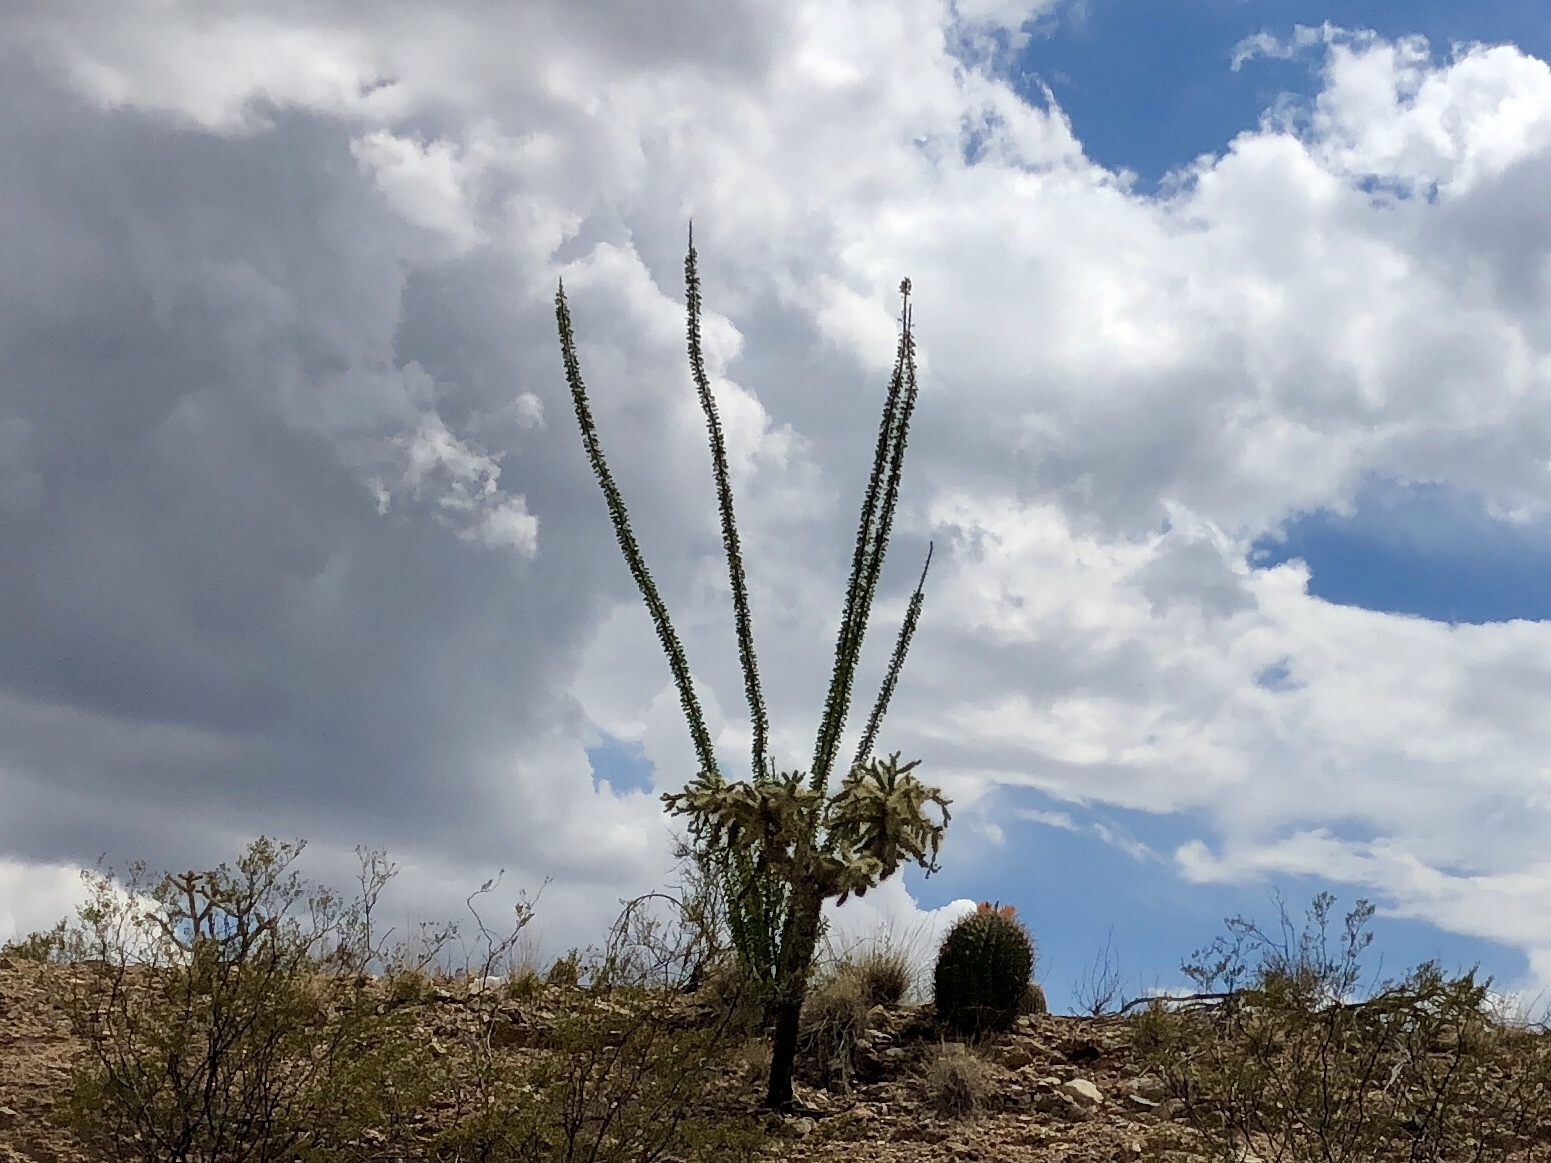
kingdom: Plantae
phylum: Tracheophyta
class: Magnoliopsida
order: Ericales
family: Fouquieriaceae
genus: Fouquieria
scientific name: Fouquieria splendens
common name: Vine-cactus
